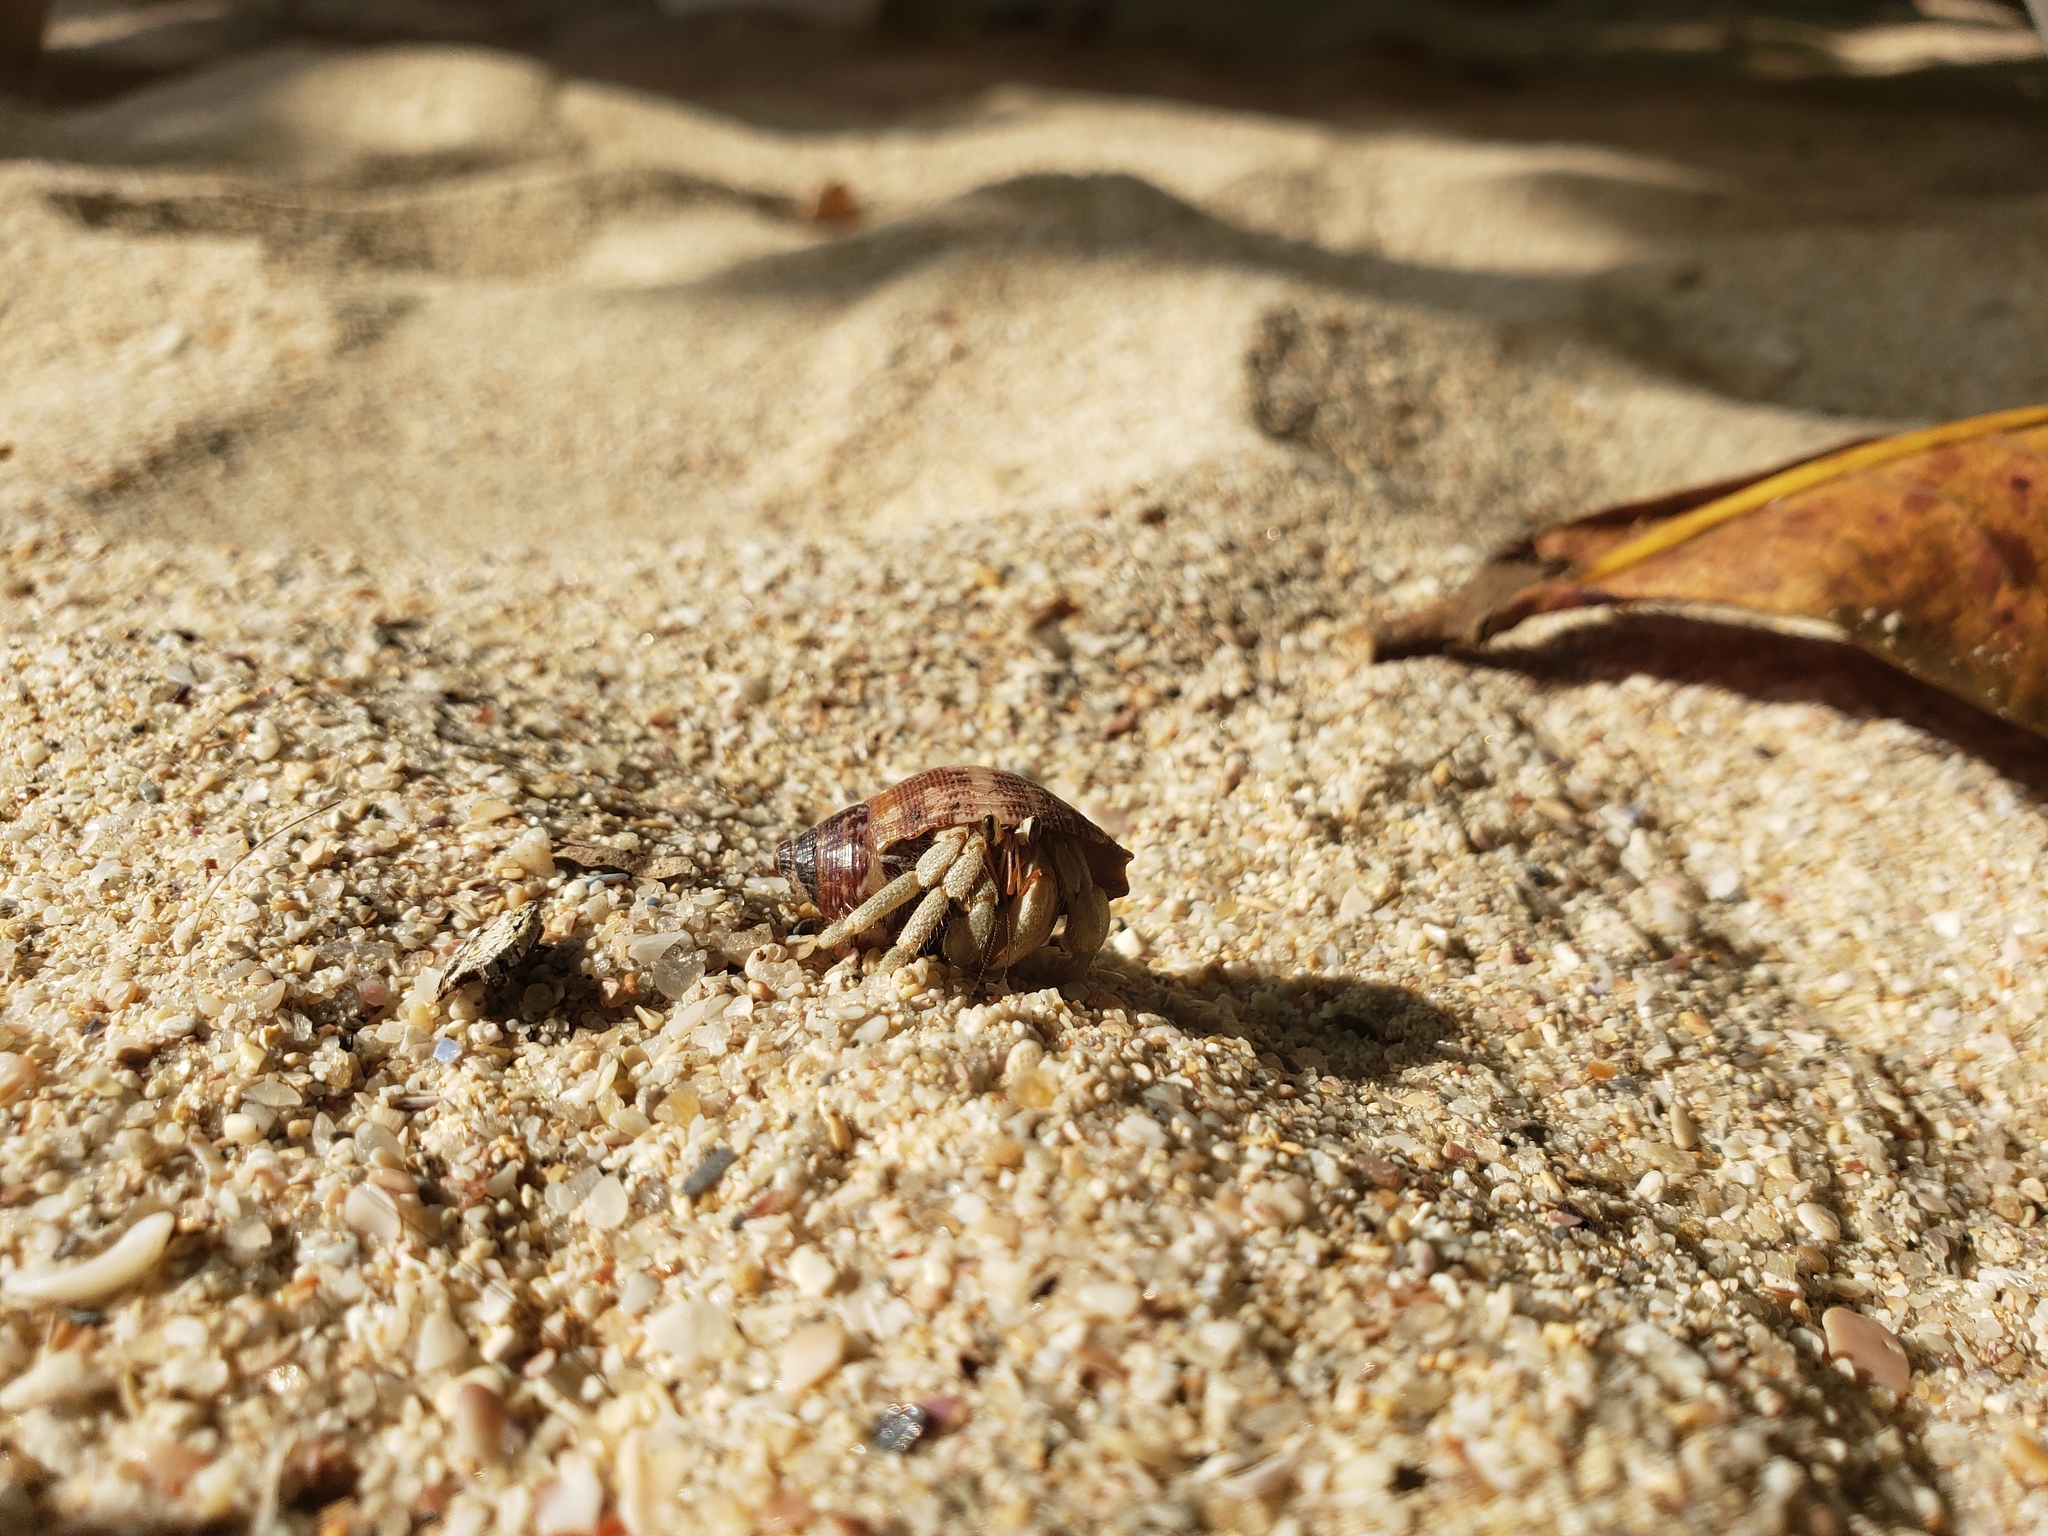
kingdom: Animalia
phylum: Arthropoda
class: Malacostraca
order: Decapoda
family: Coenobitidae
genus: Coenobita
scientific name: Coenobita rugosus
